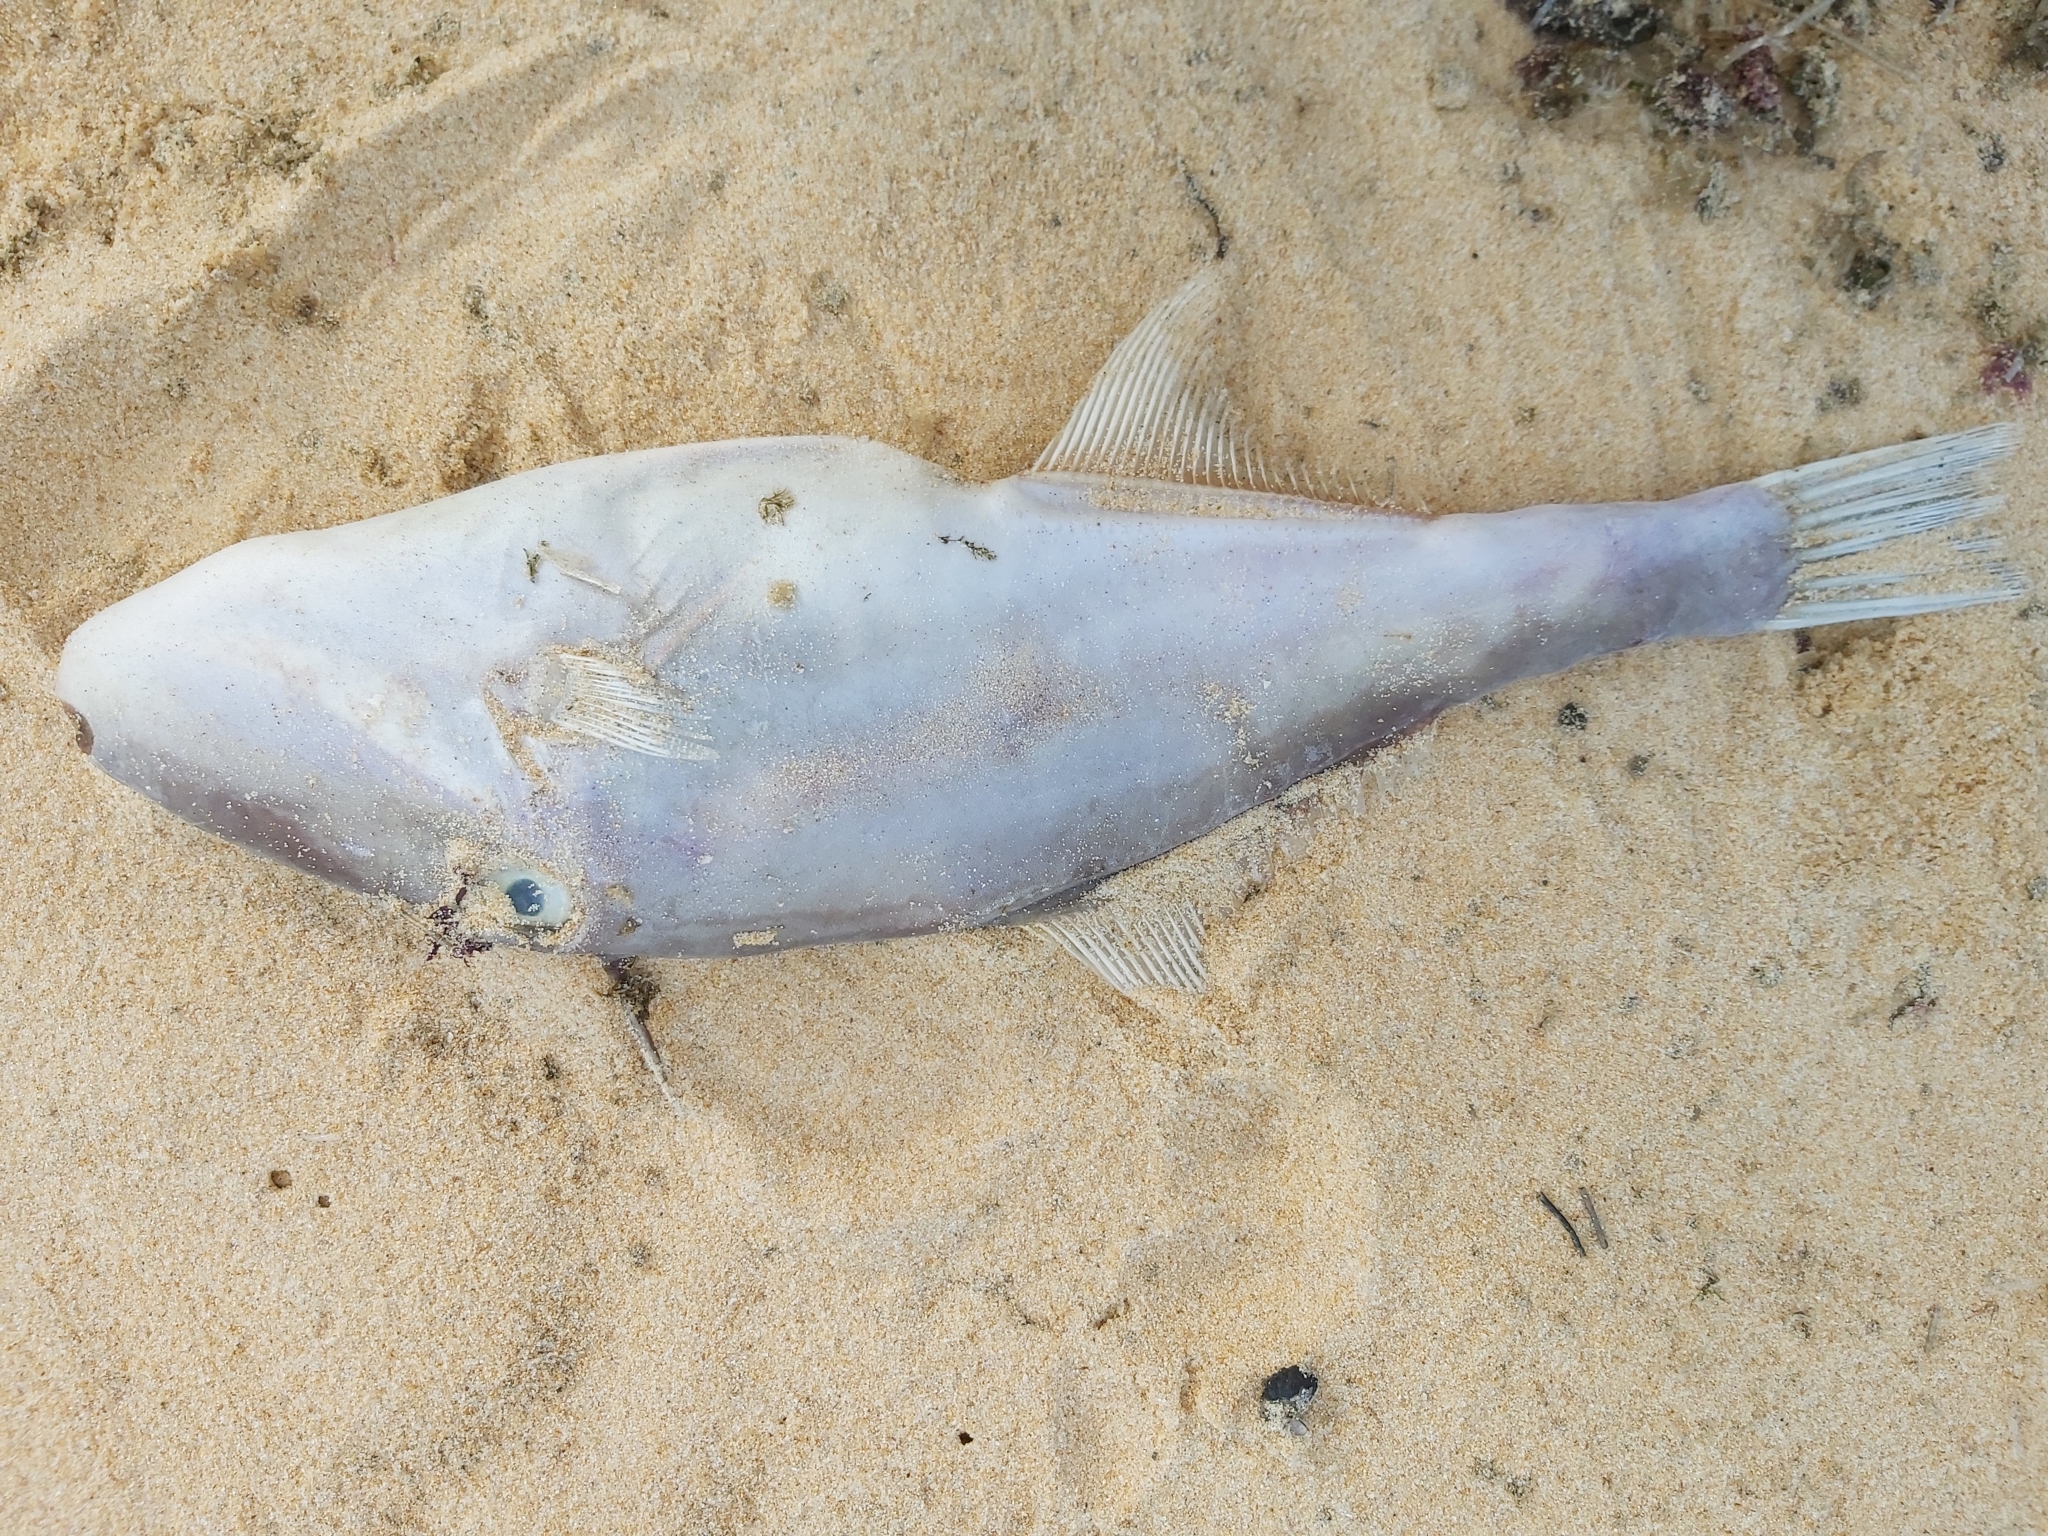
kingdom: Animalia
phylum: Chordata
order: Tetraodontiformes
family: Monacanthidae
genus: Nelusetta
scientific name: Nelusetta ayraud
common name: Chinaman leatherjacket
